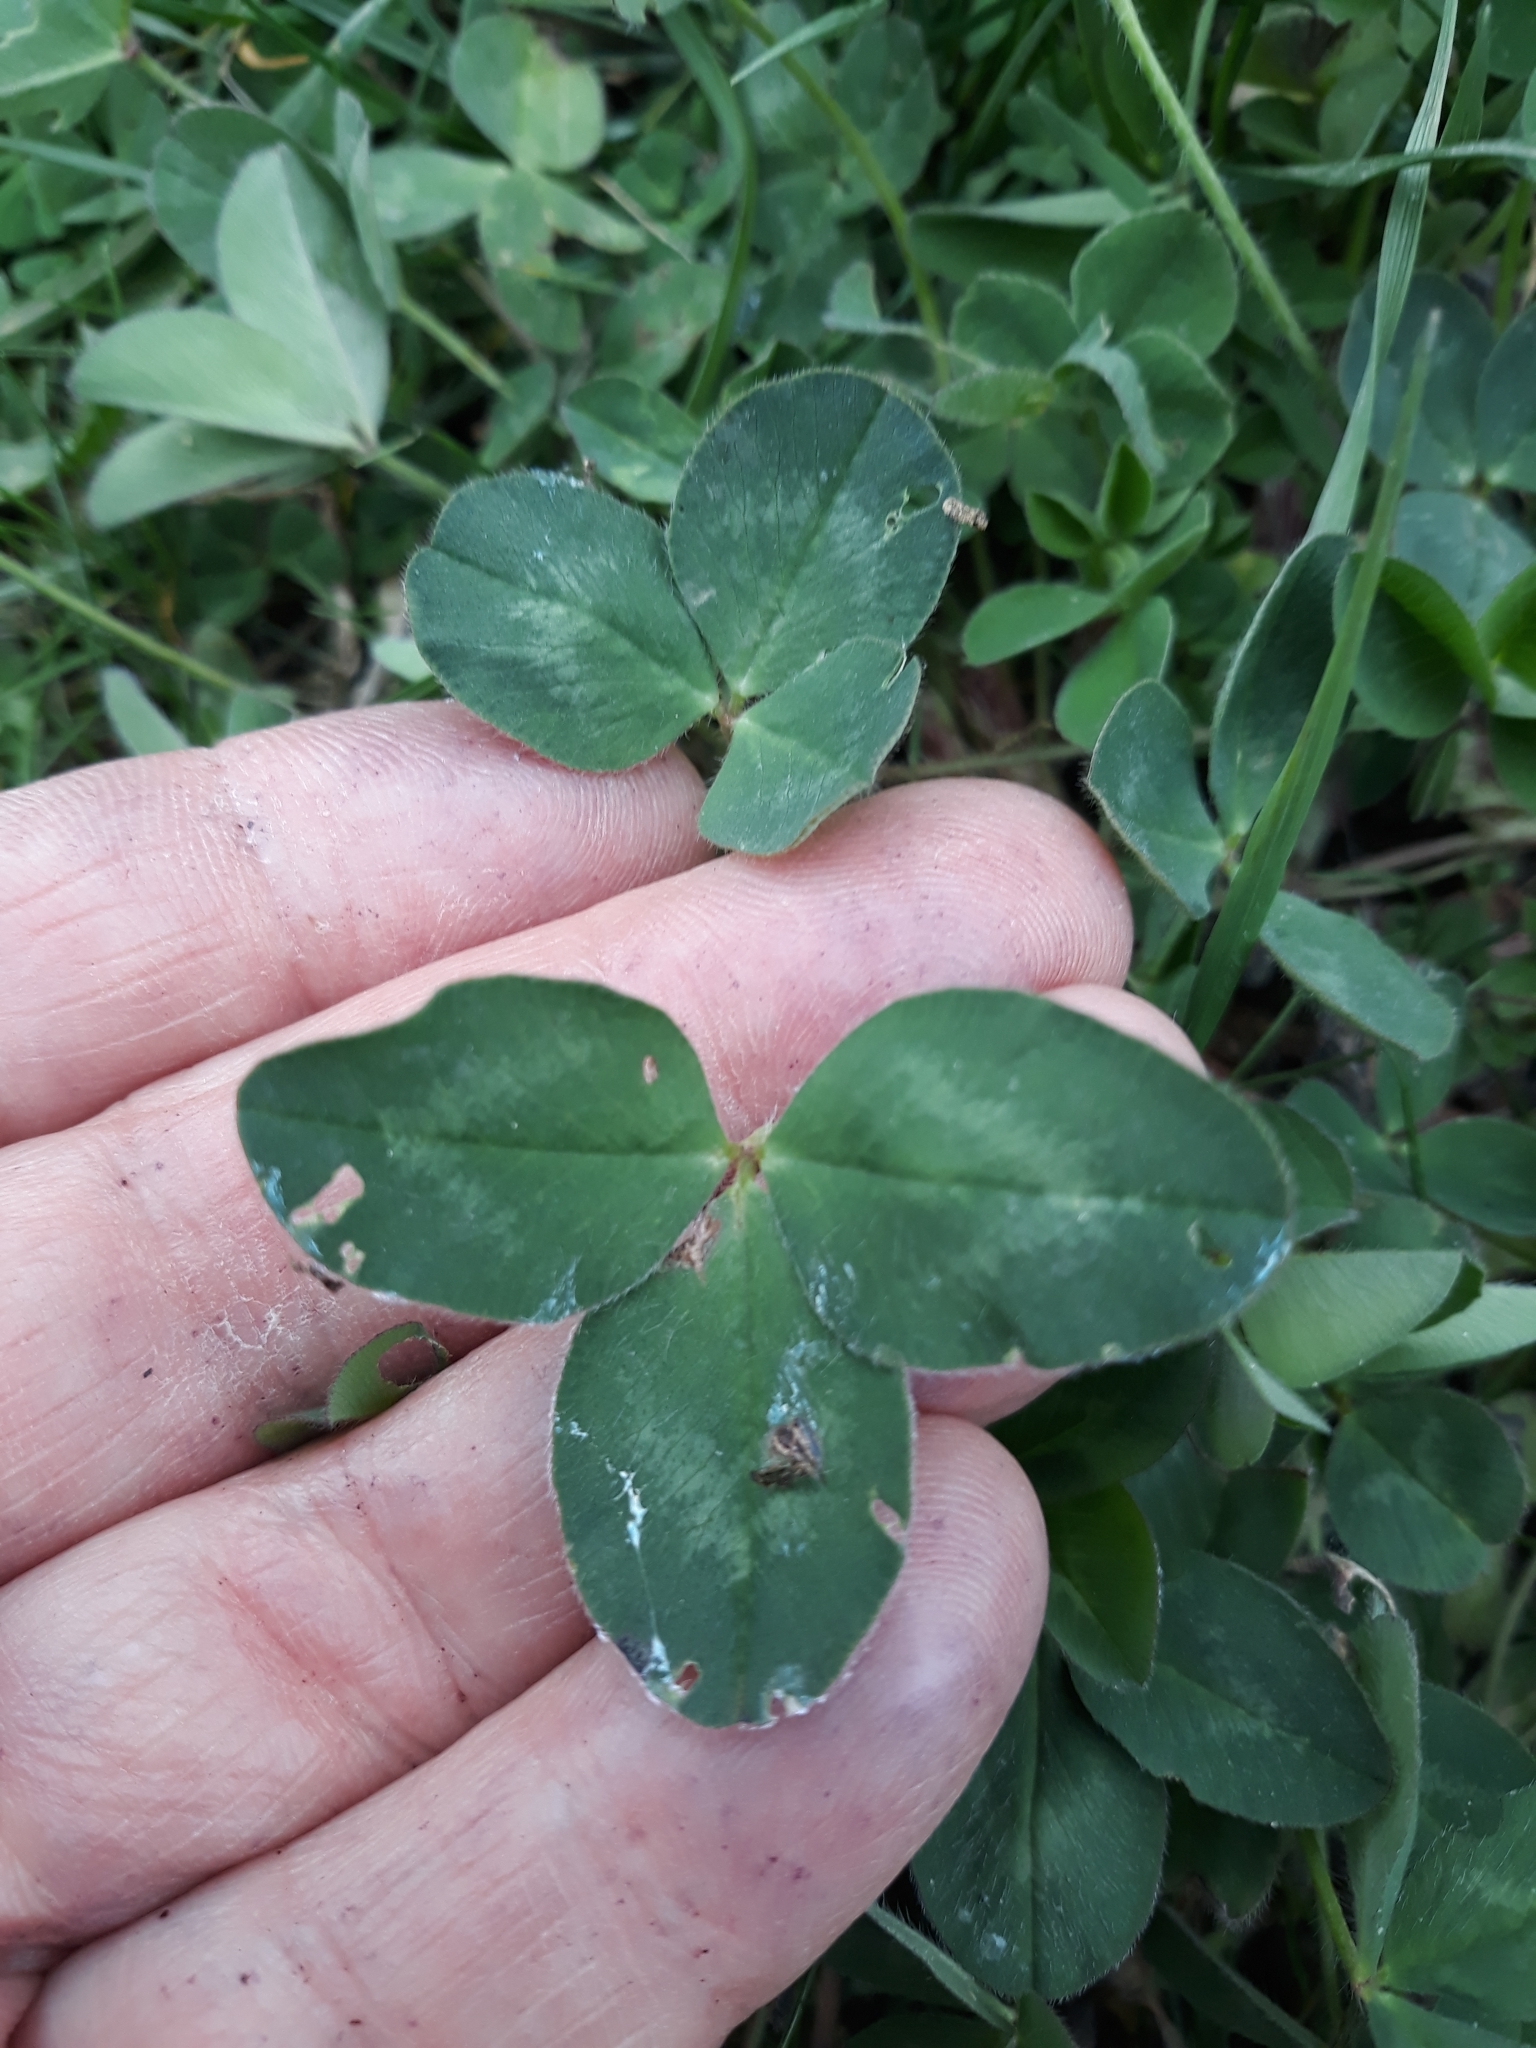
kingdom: Plantae
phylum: Tracheophyta
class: Magnoliopsida
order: Fabales
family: Fabaceae
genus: Trifolium
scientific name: Trifolium pratense
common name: Red clover
